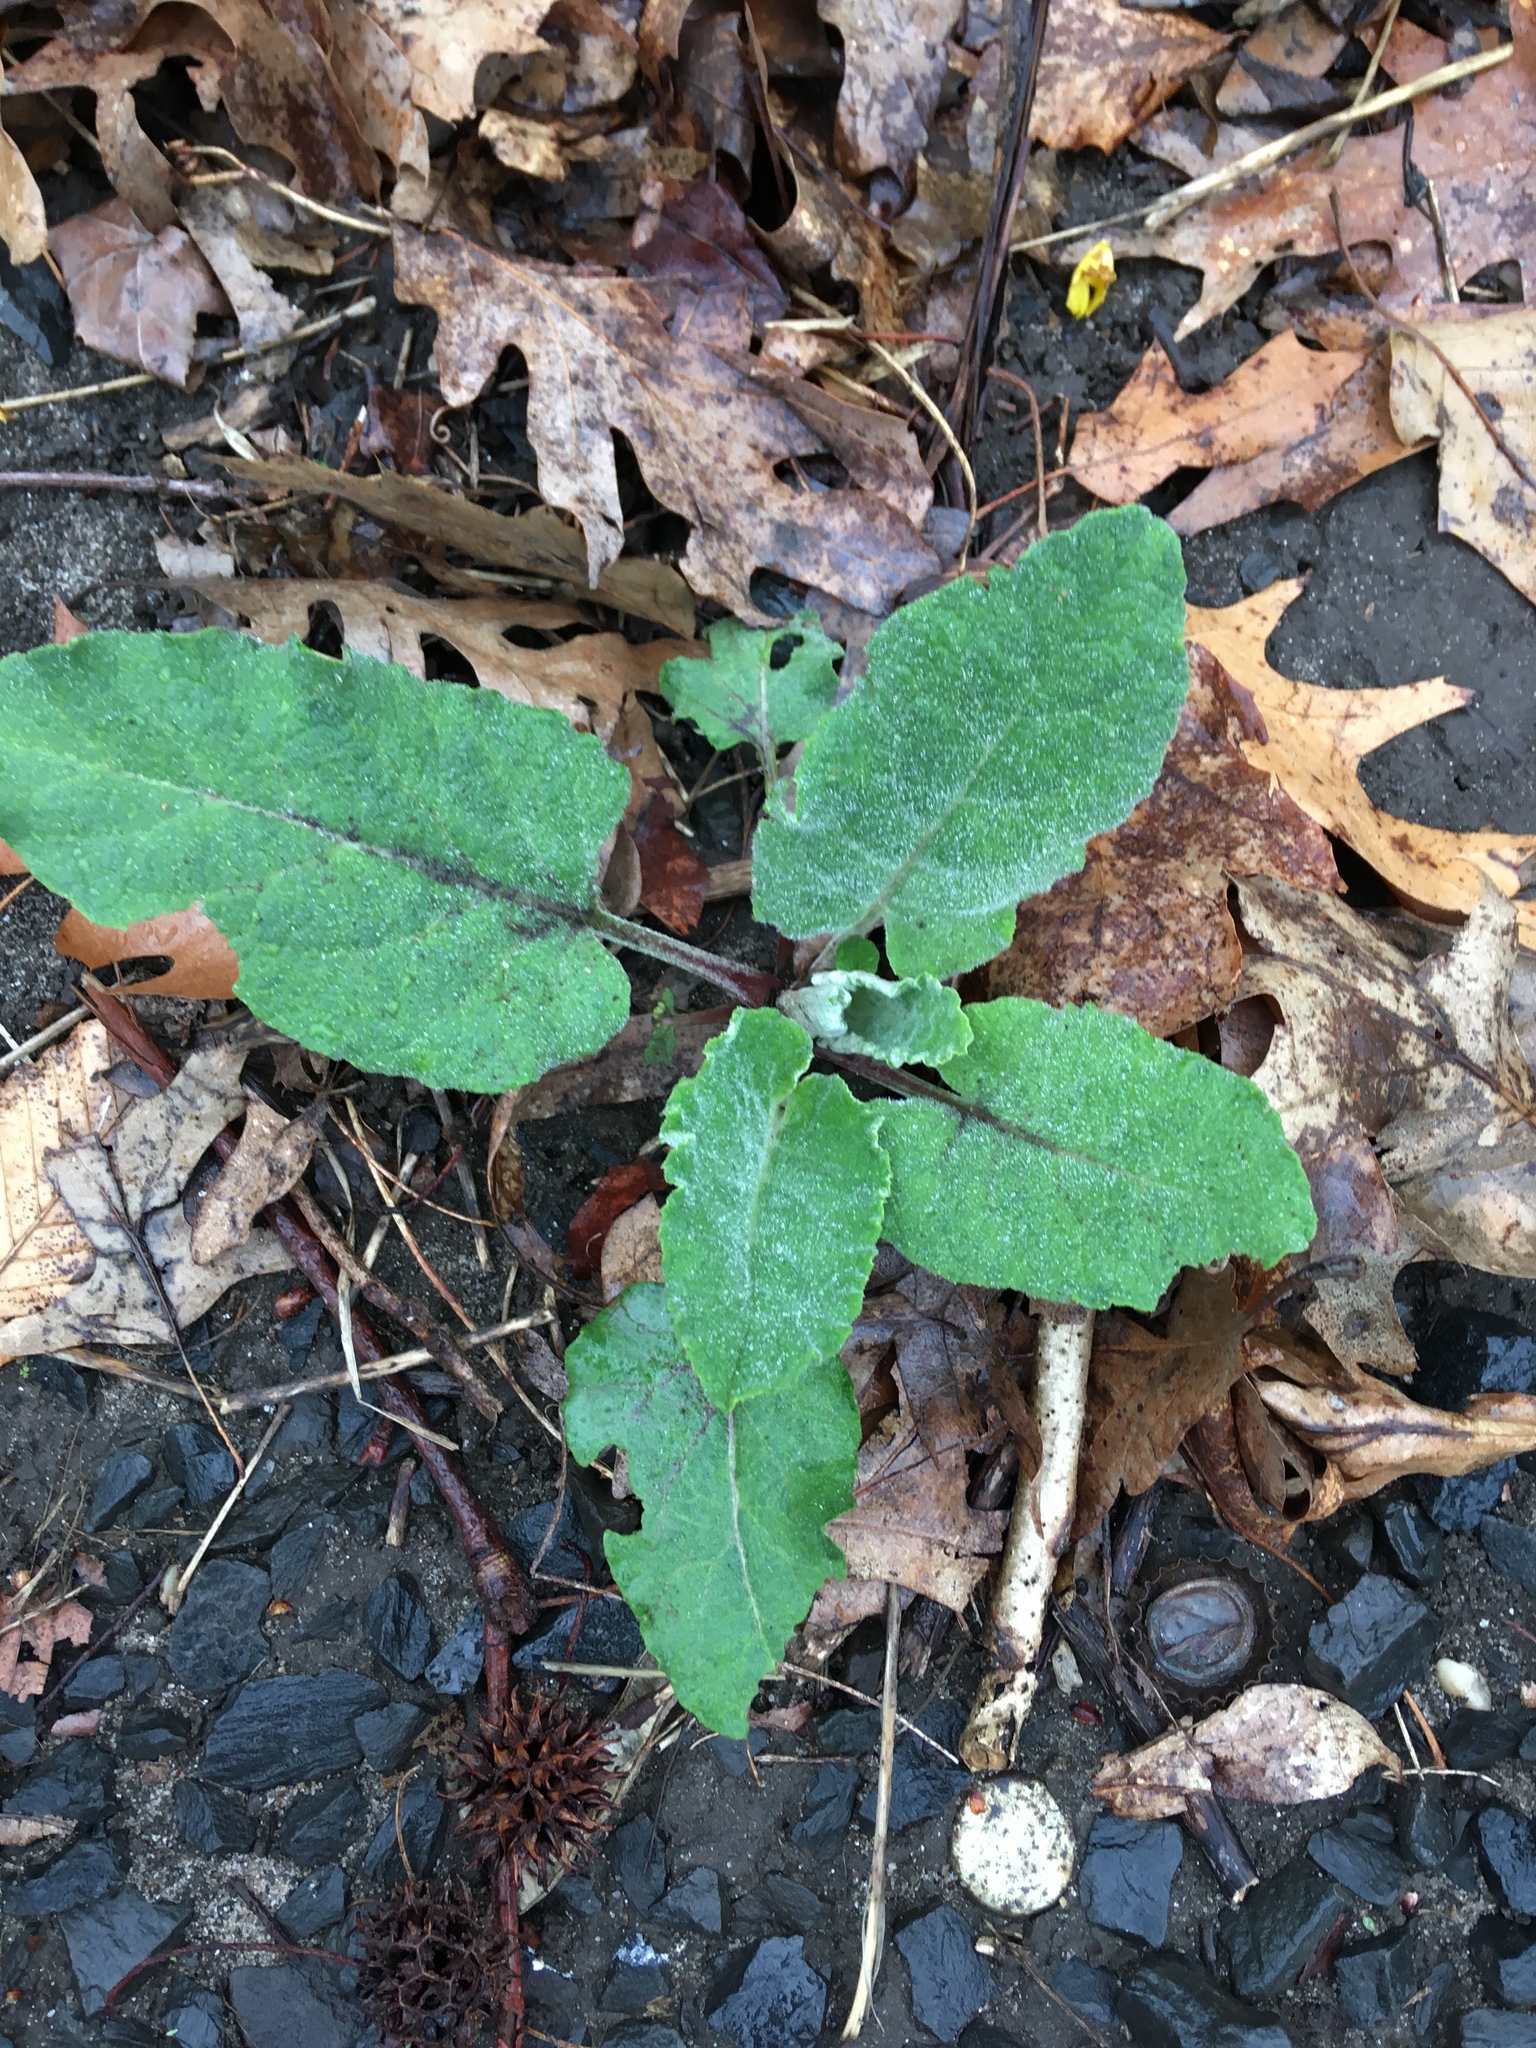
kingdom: Plantae
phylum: Tracheophyta
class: Magnoliopsida
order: Asterales
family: Asteraceae
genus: Arctium
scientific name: Arctium
